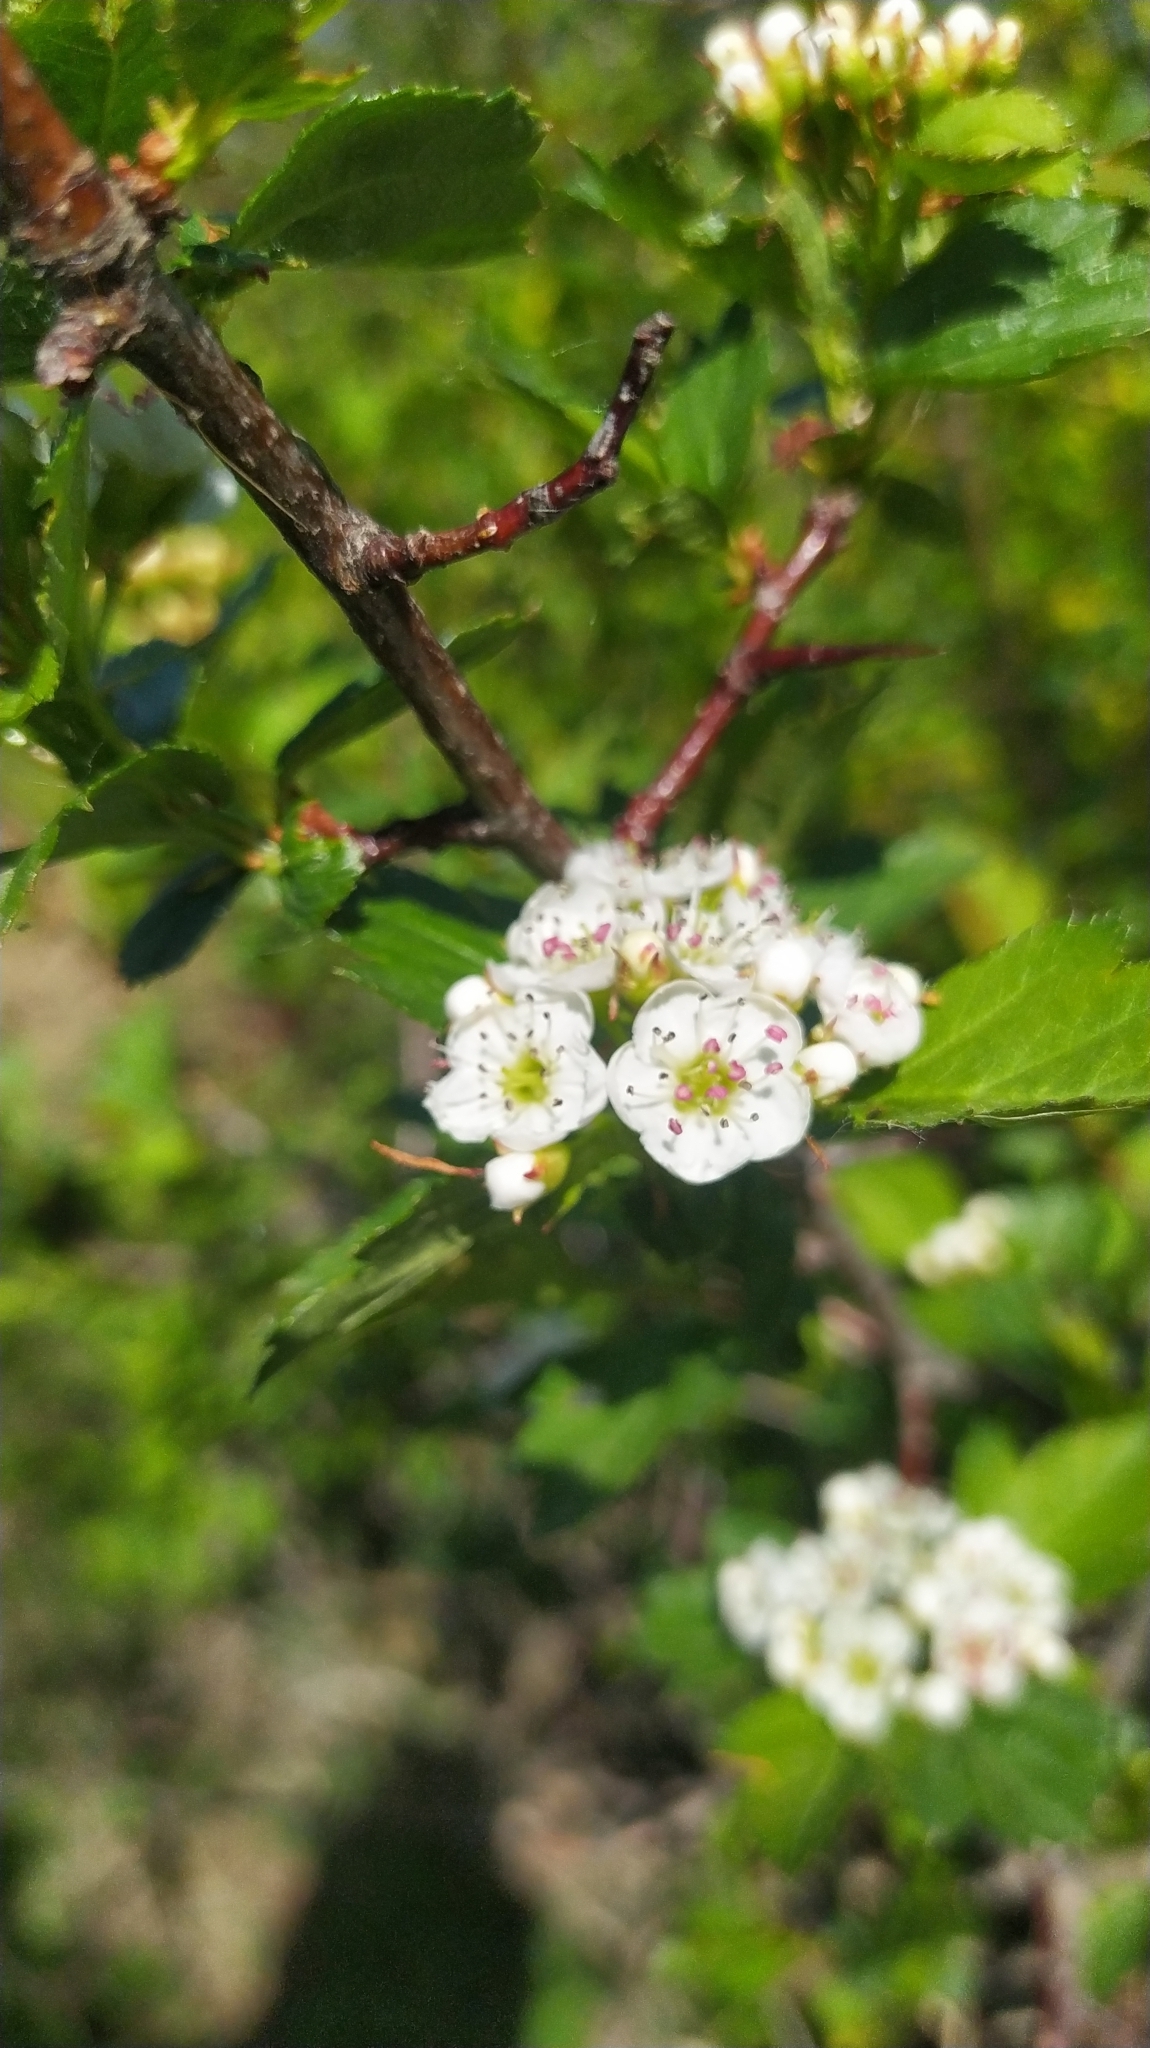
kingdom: Plantae
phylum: Tracheophyta
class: Magnoliopsida
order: Rosales
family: Rosaceae
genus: Crataegus
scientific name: Crataegus sanguinea
